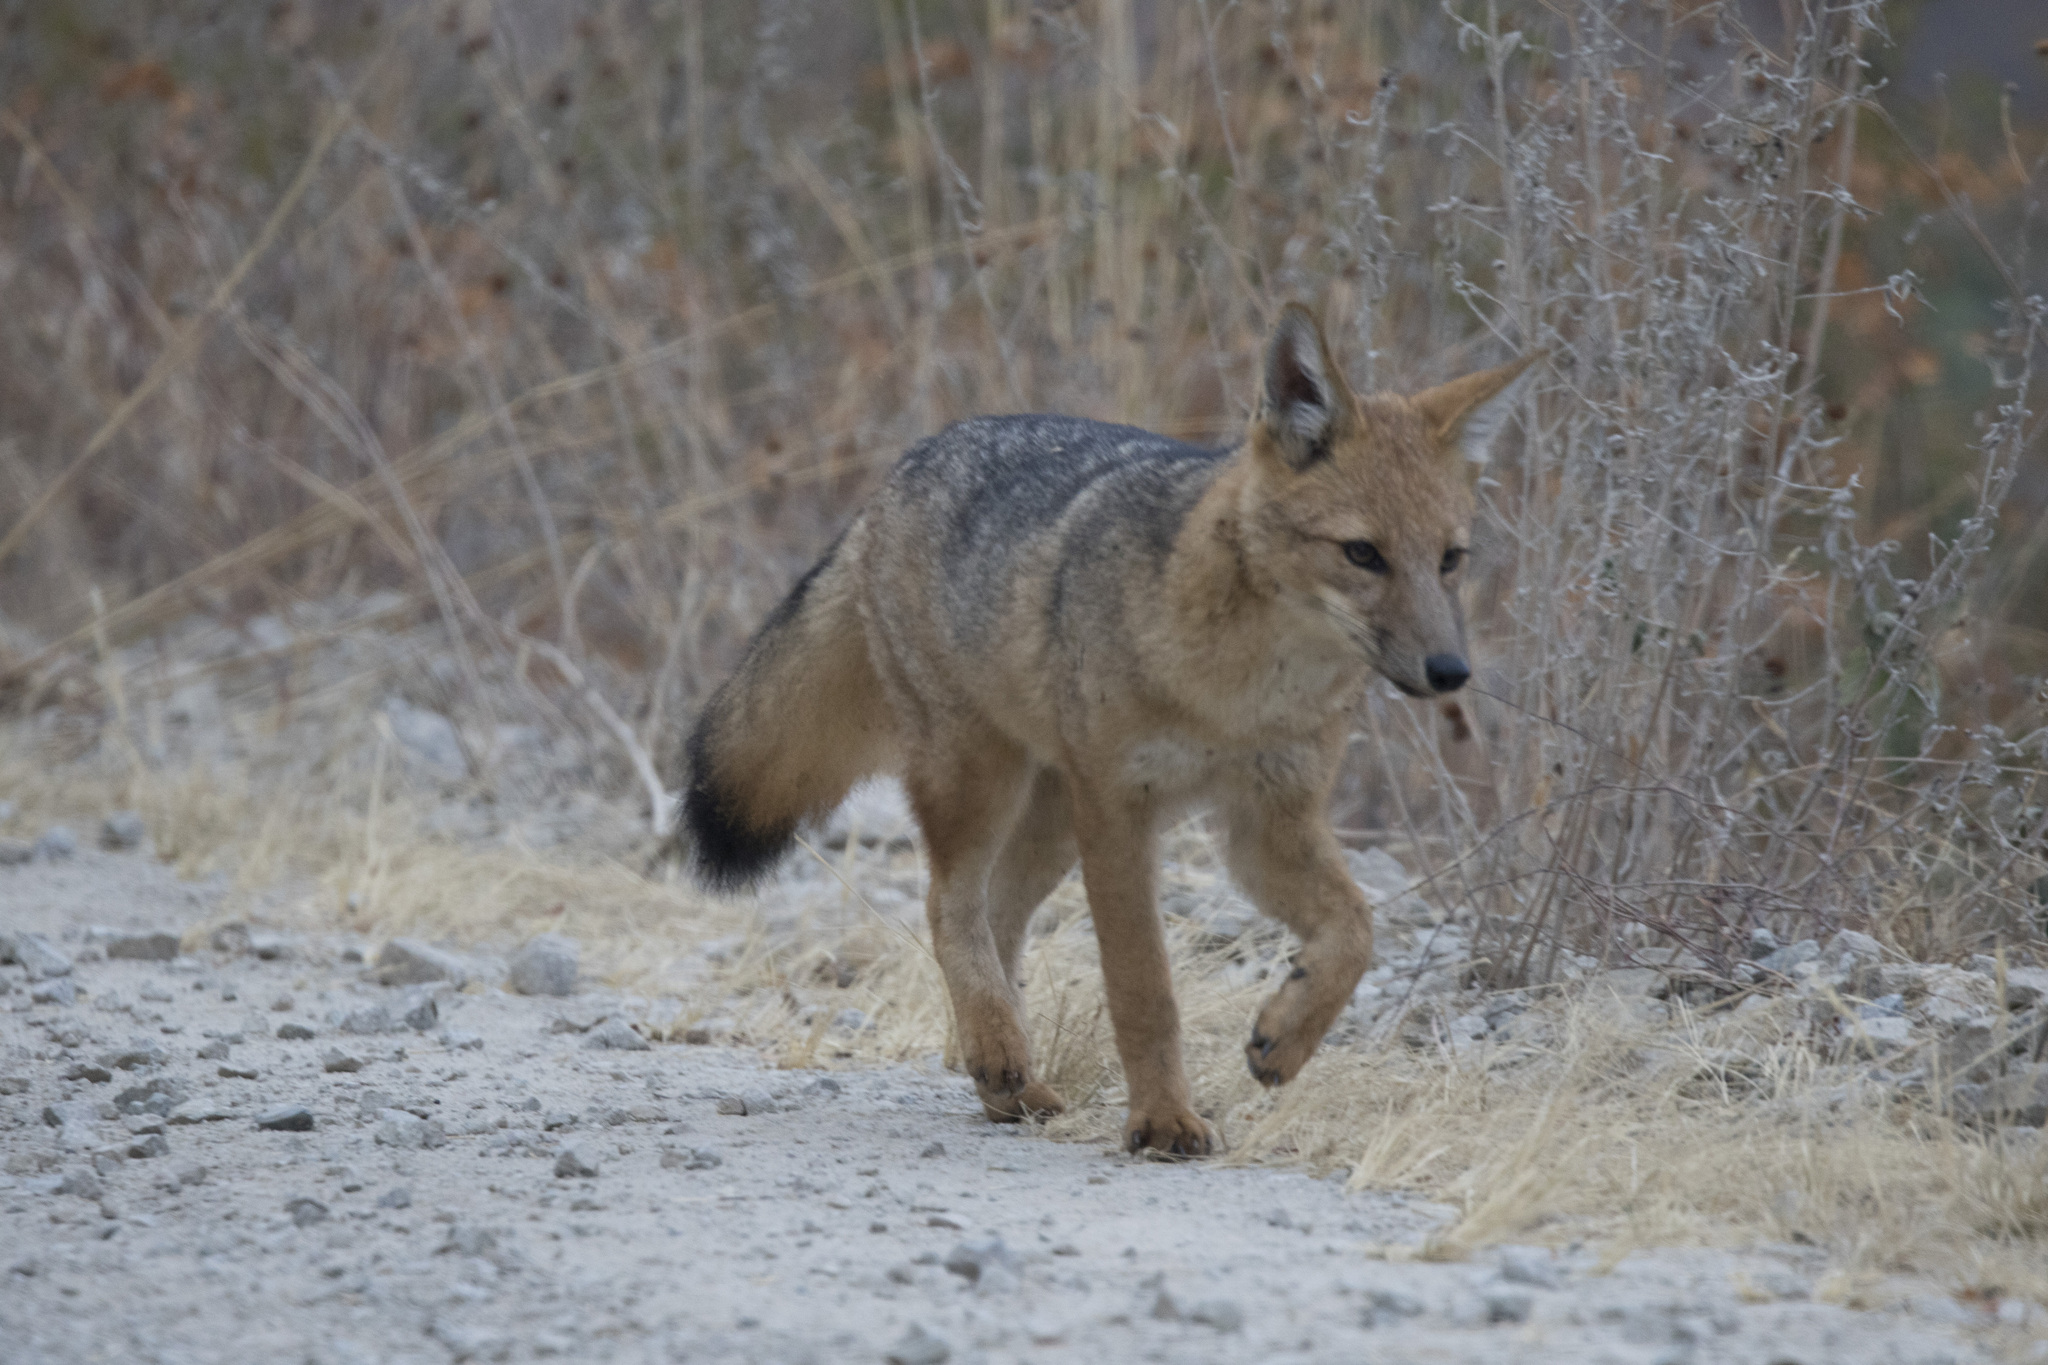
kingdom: Animalia
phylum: Chordata
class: Mammalia
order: Carnivora
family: Canidae
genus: Lycalopex
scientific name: Lycalopex culpaeus
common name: Culpeo
